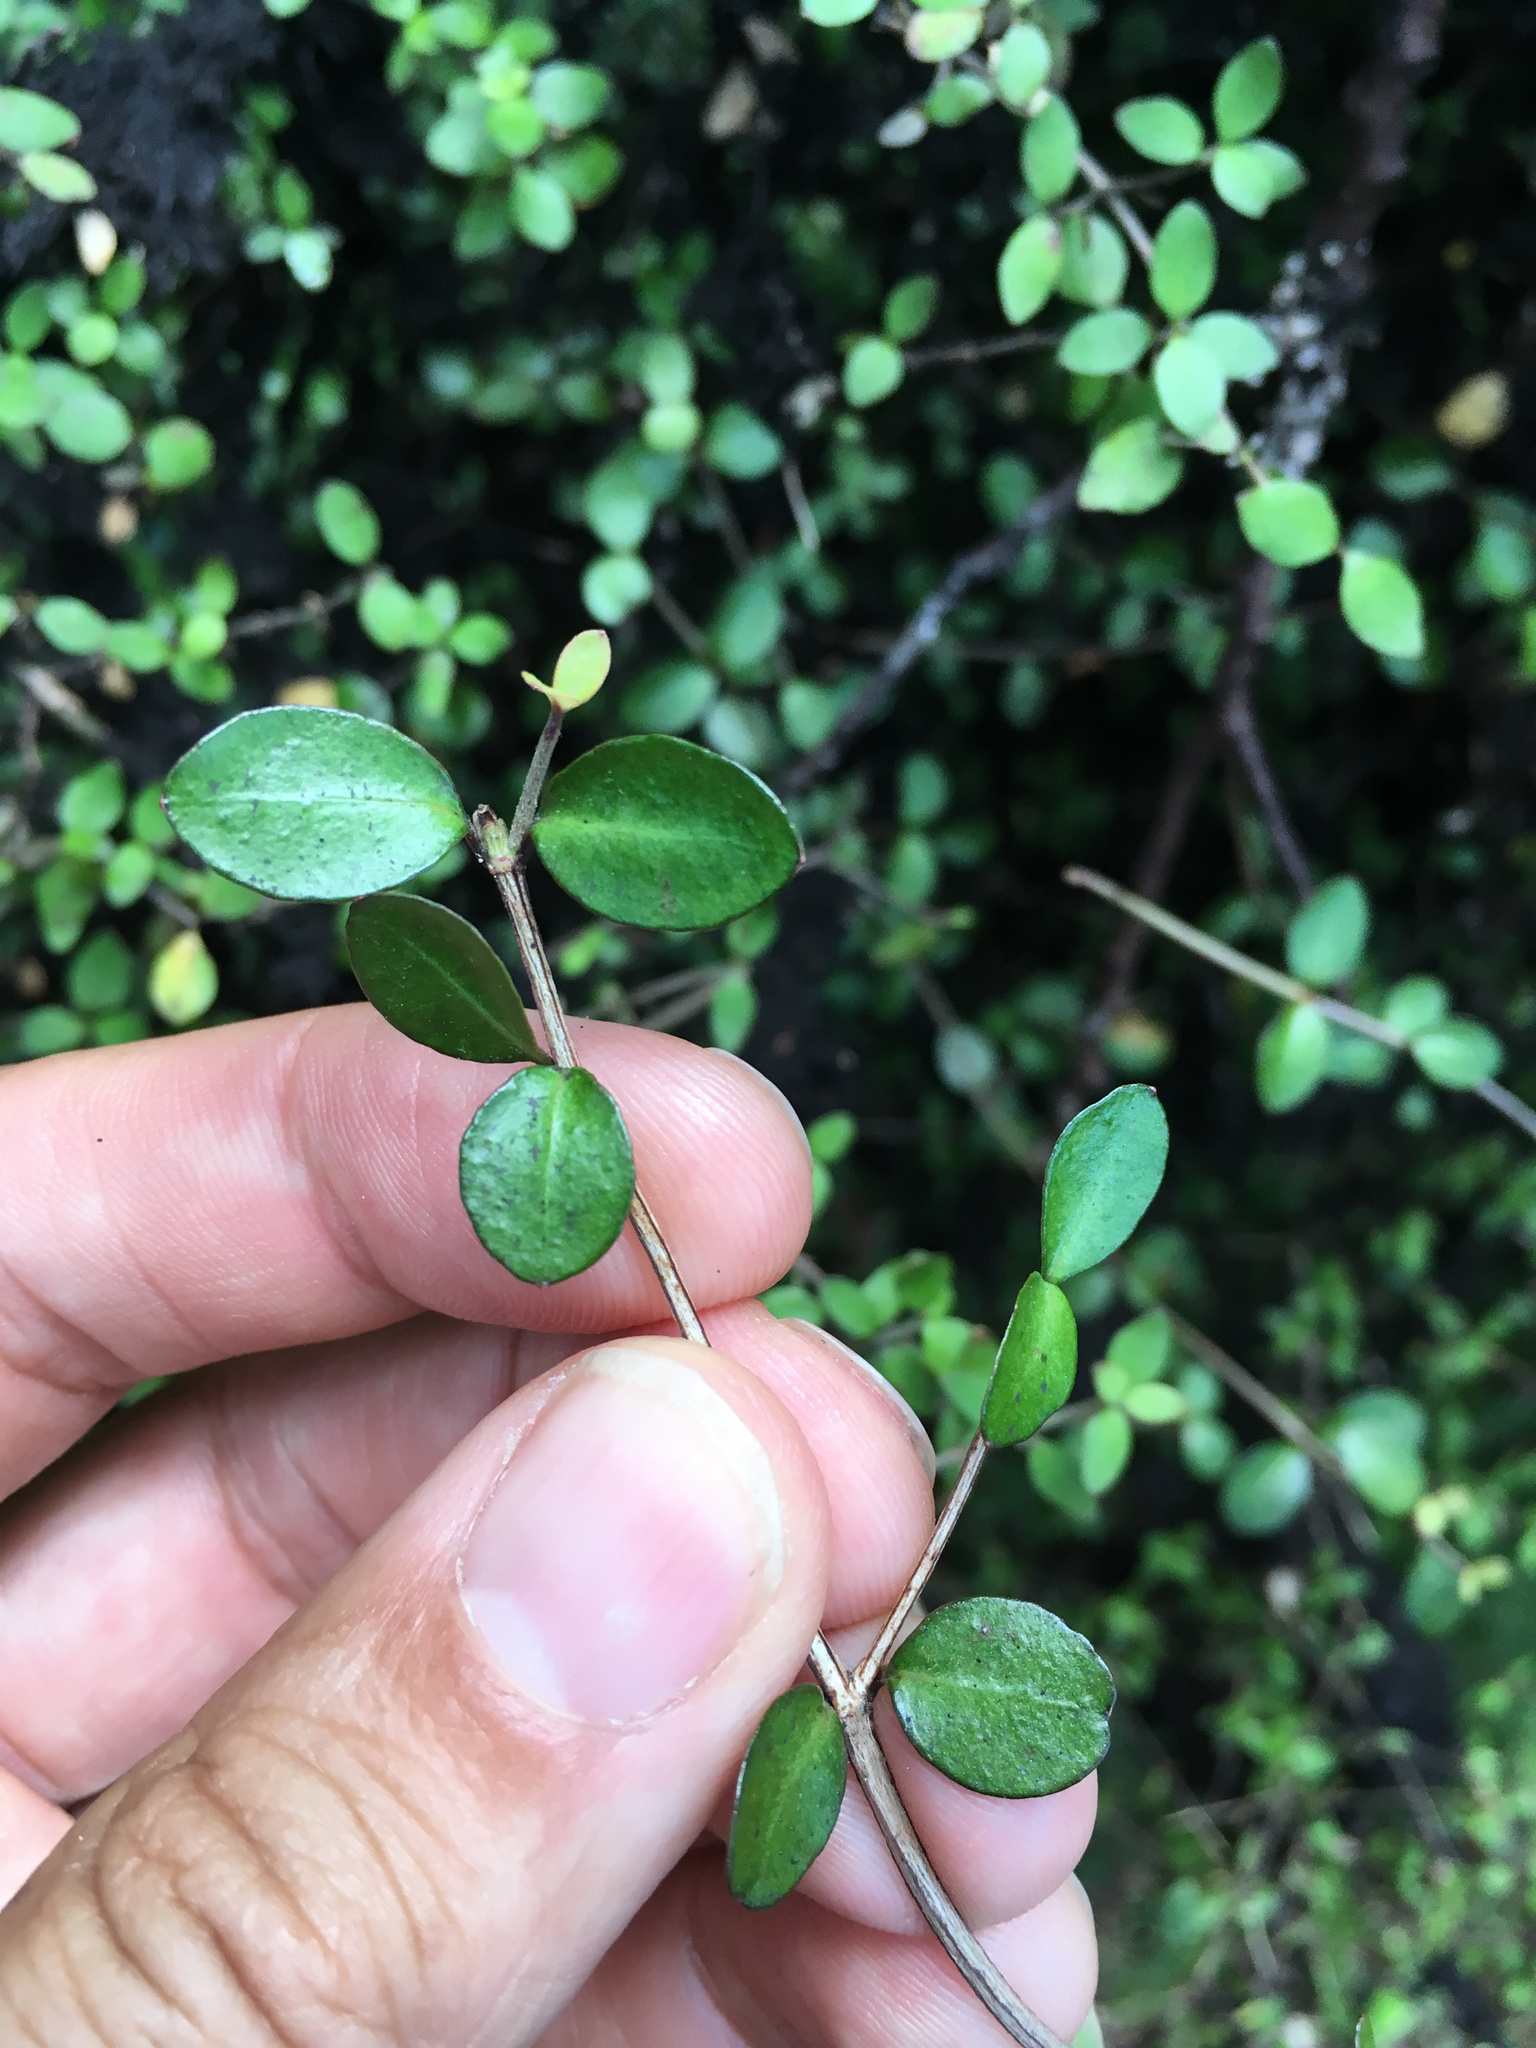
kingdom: Plantae
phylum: Tracheophyta
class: Magnoliopsida
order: Myrtales
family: Myrtaceae
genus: Neomyrtus
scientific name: Neomyrtus pedunculata
